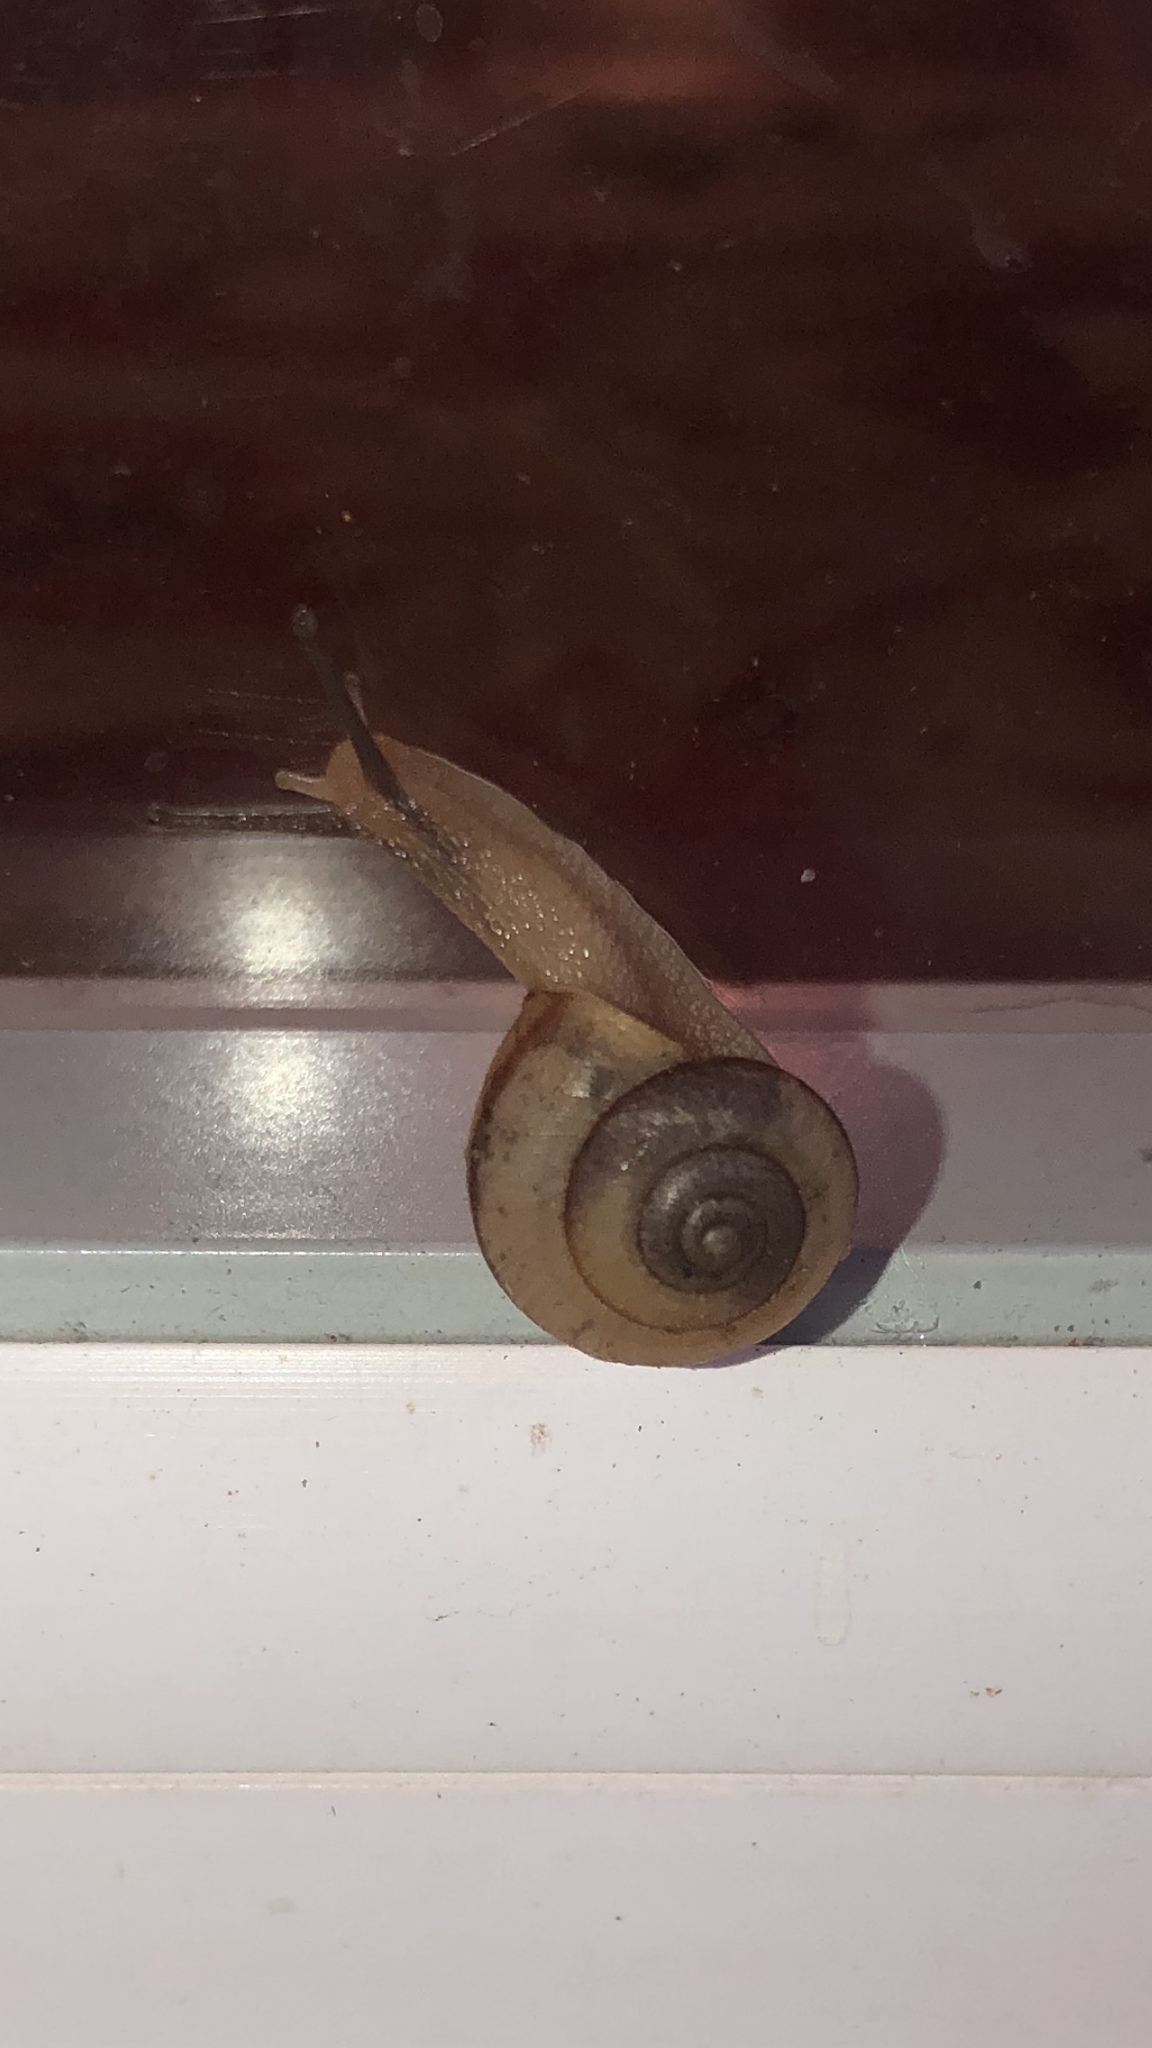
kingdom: Animalia
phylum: Mollusca
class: Gastropoda
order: Stylommatophora
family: Camaenidae
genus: Bradybaena
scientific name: Bradybaena similaris
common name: Asian trampsnail
